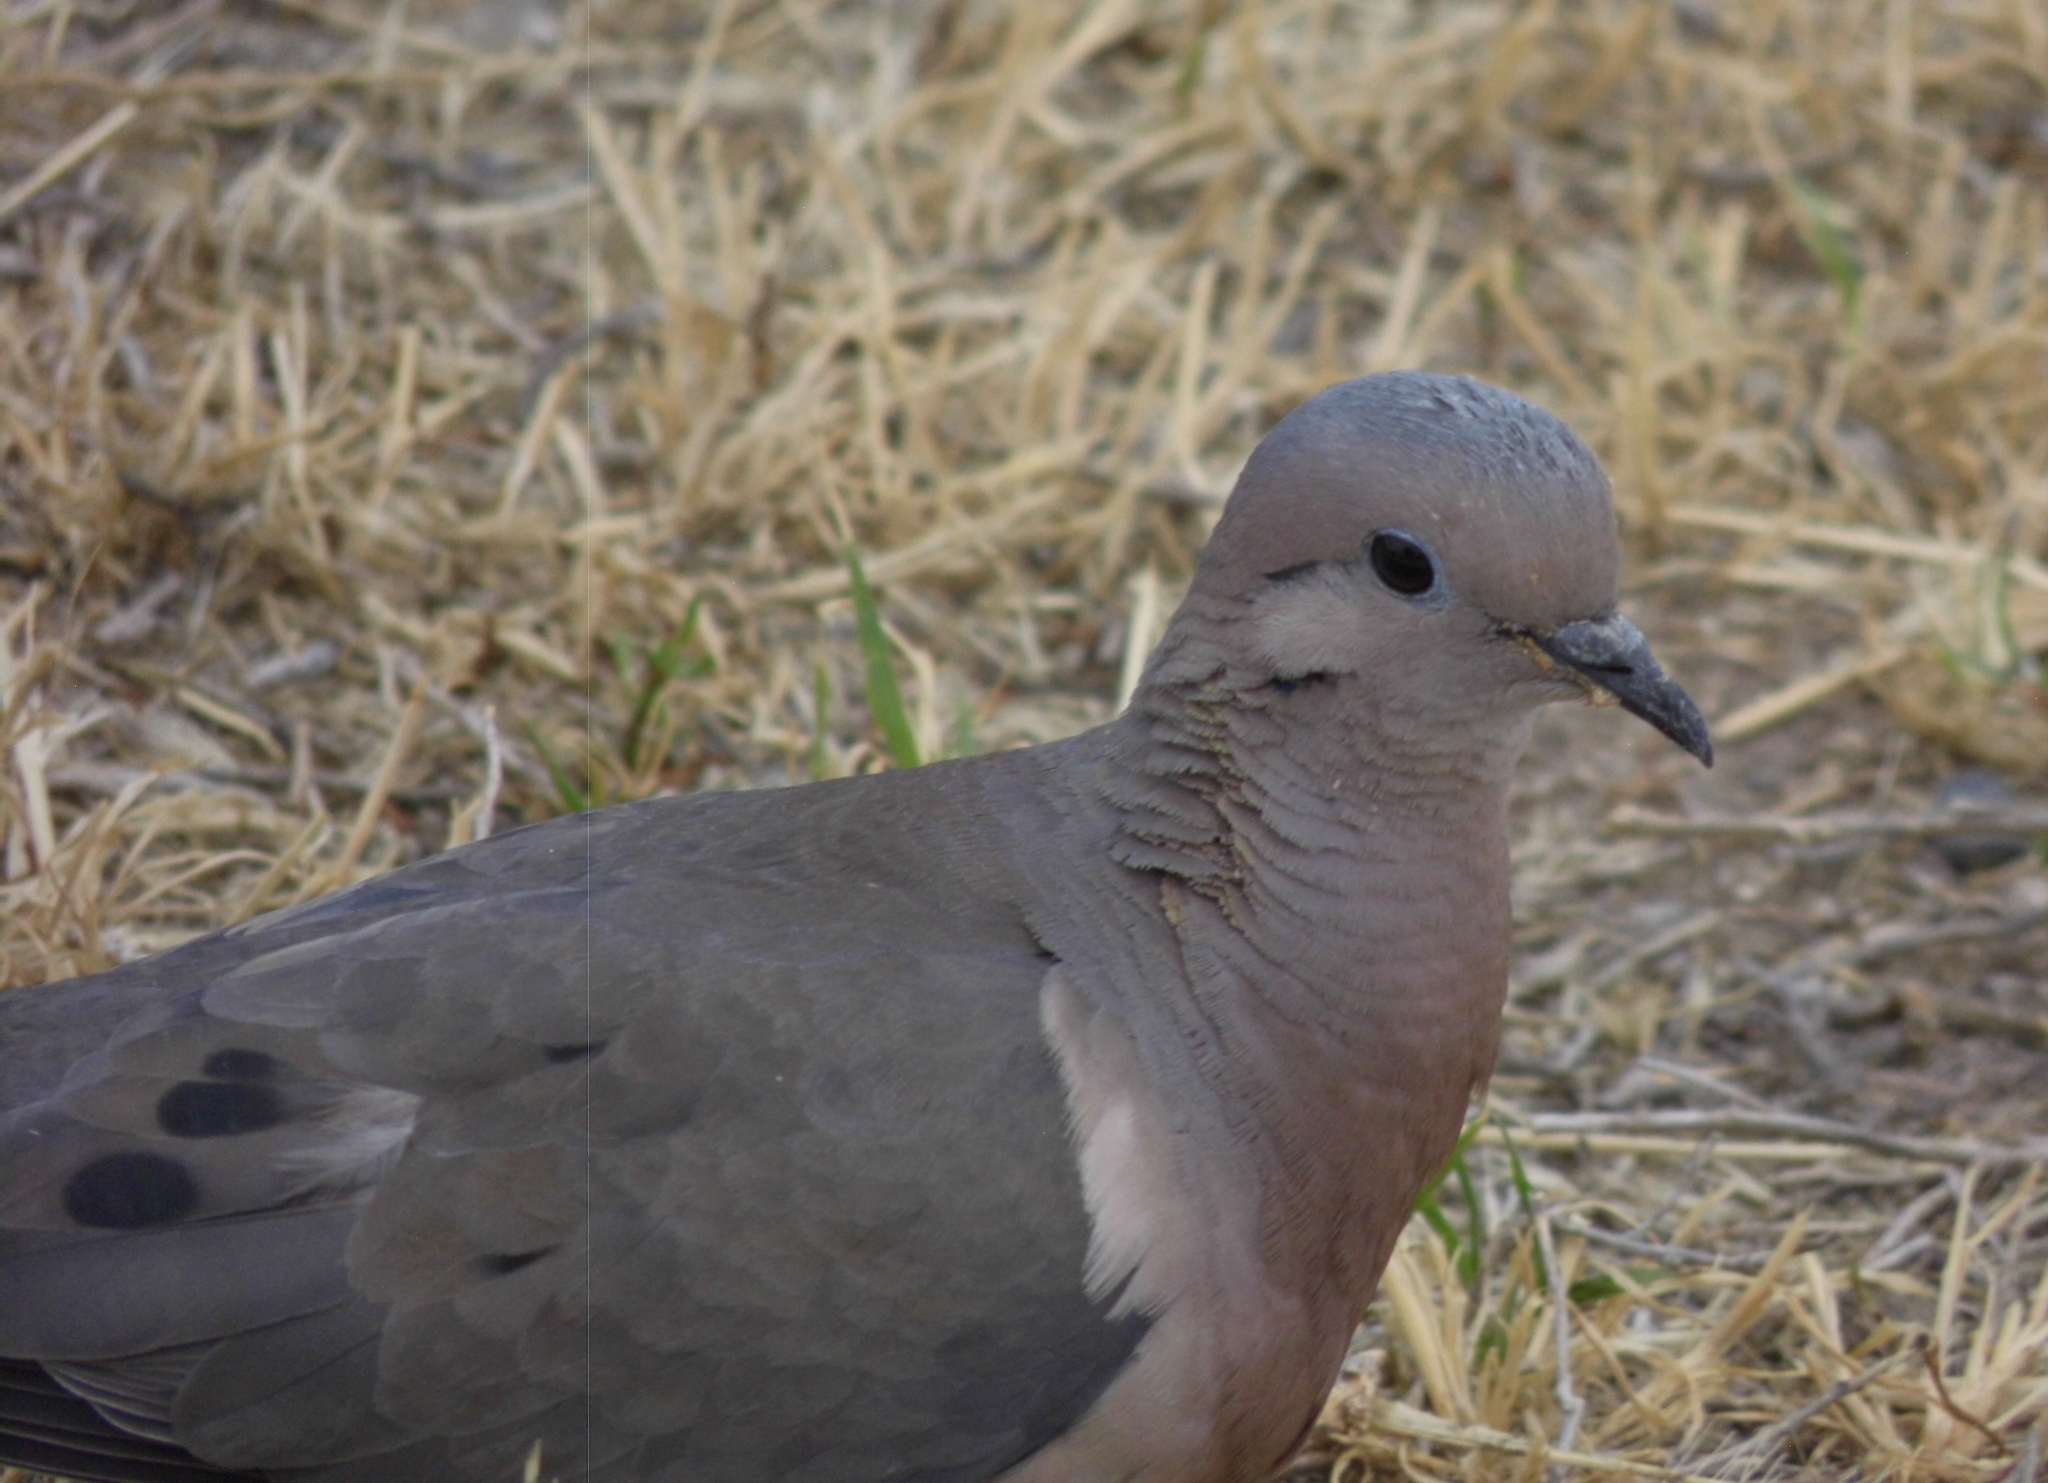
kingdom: Animalia
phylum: Chordata
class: Aves
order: Columbiformes
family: Columbidae
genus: Zenaida
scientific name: Zenaida auriculata
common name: Eared dove
